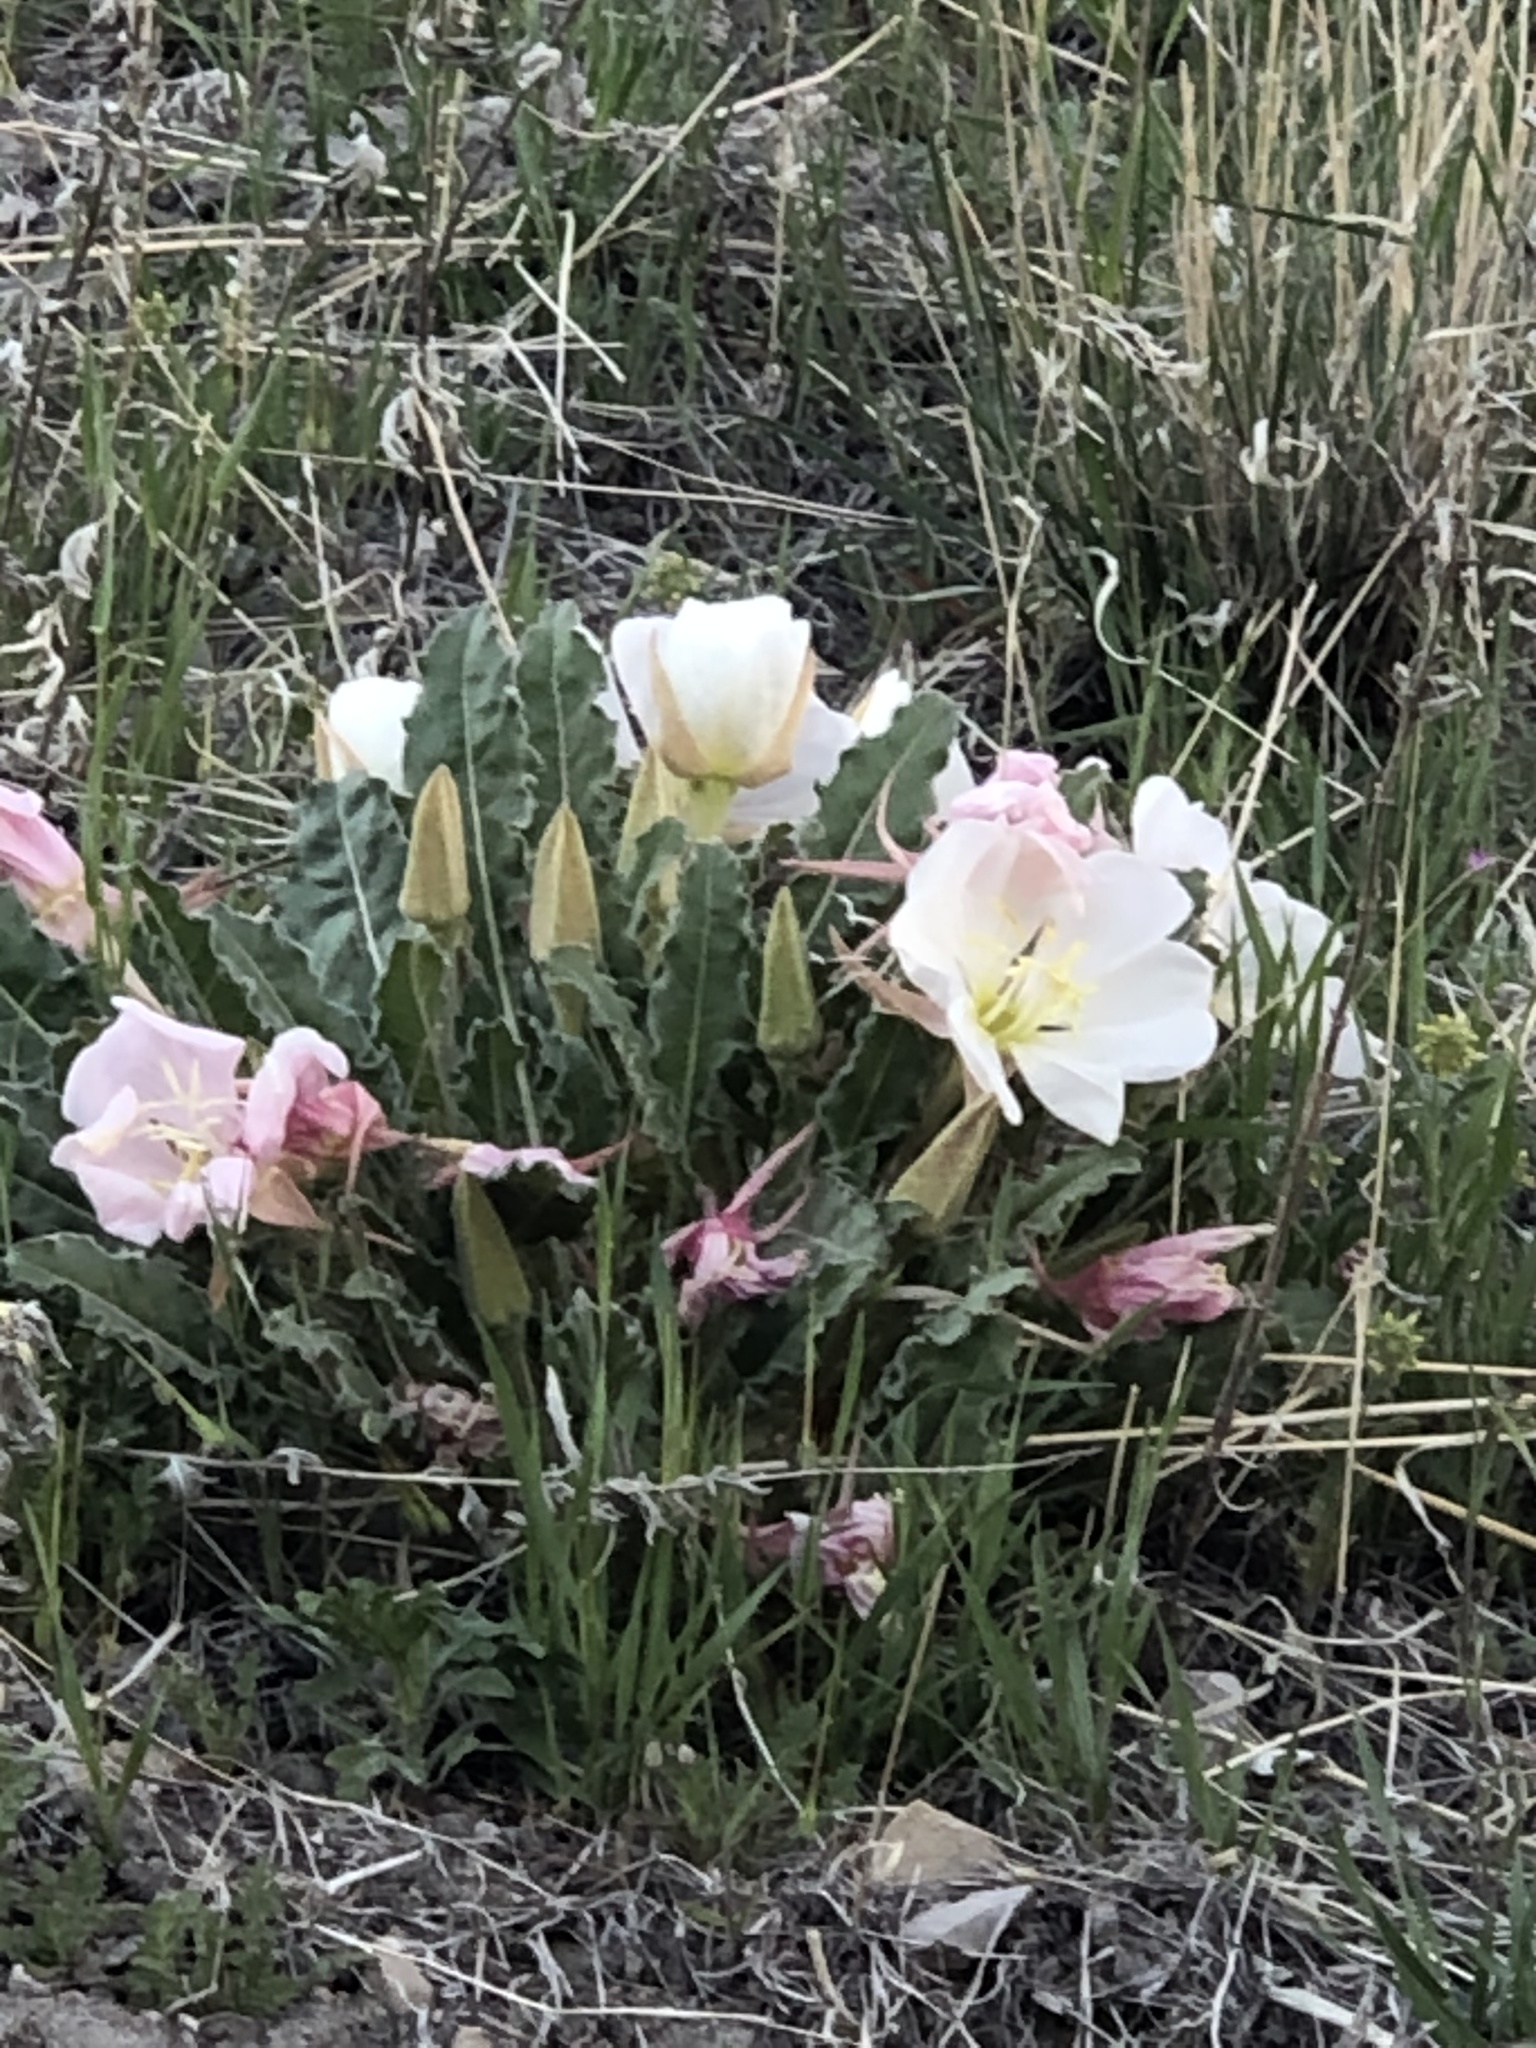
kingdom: Plantae
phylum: Tracheophyta
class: Magnoliopsida
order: Myrtales
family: Onagraceae
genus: Oenothera
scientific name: Oenothera cespitosa
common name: Tufted evening-primrose
